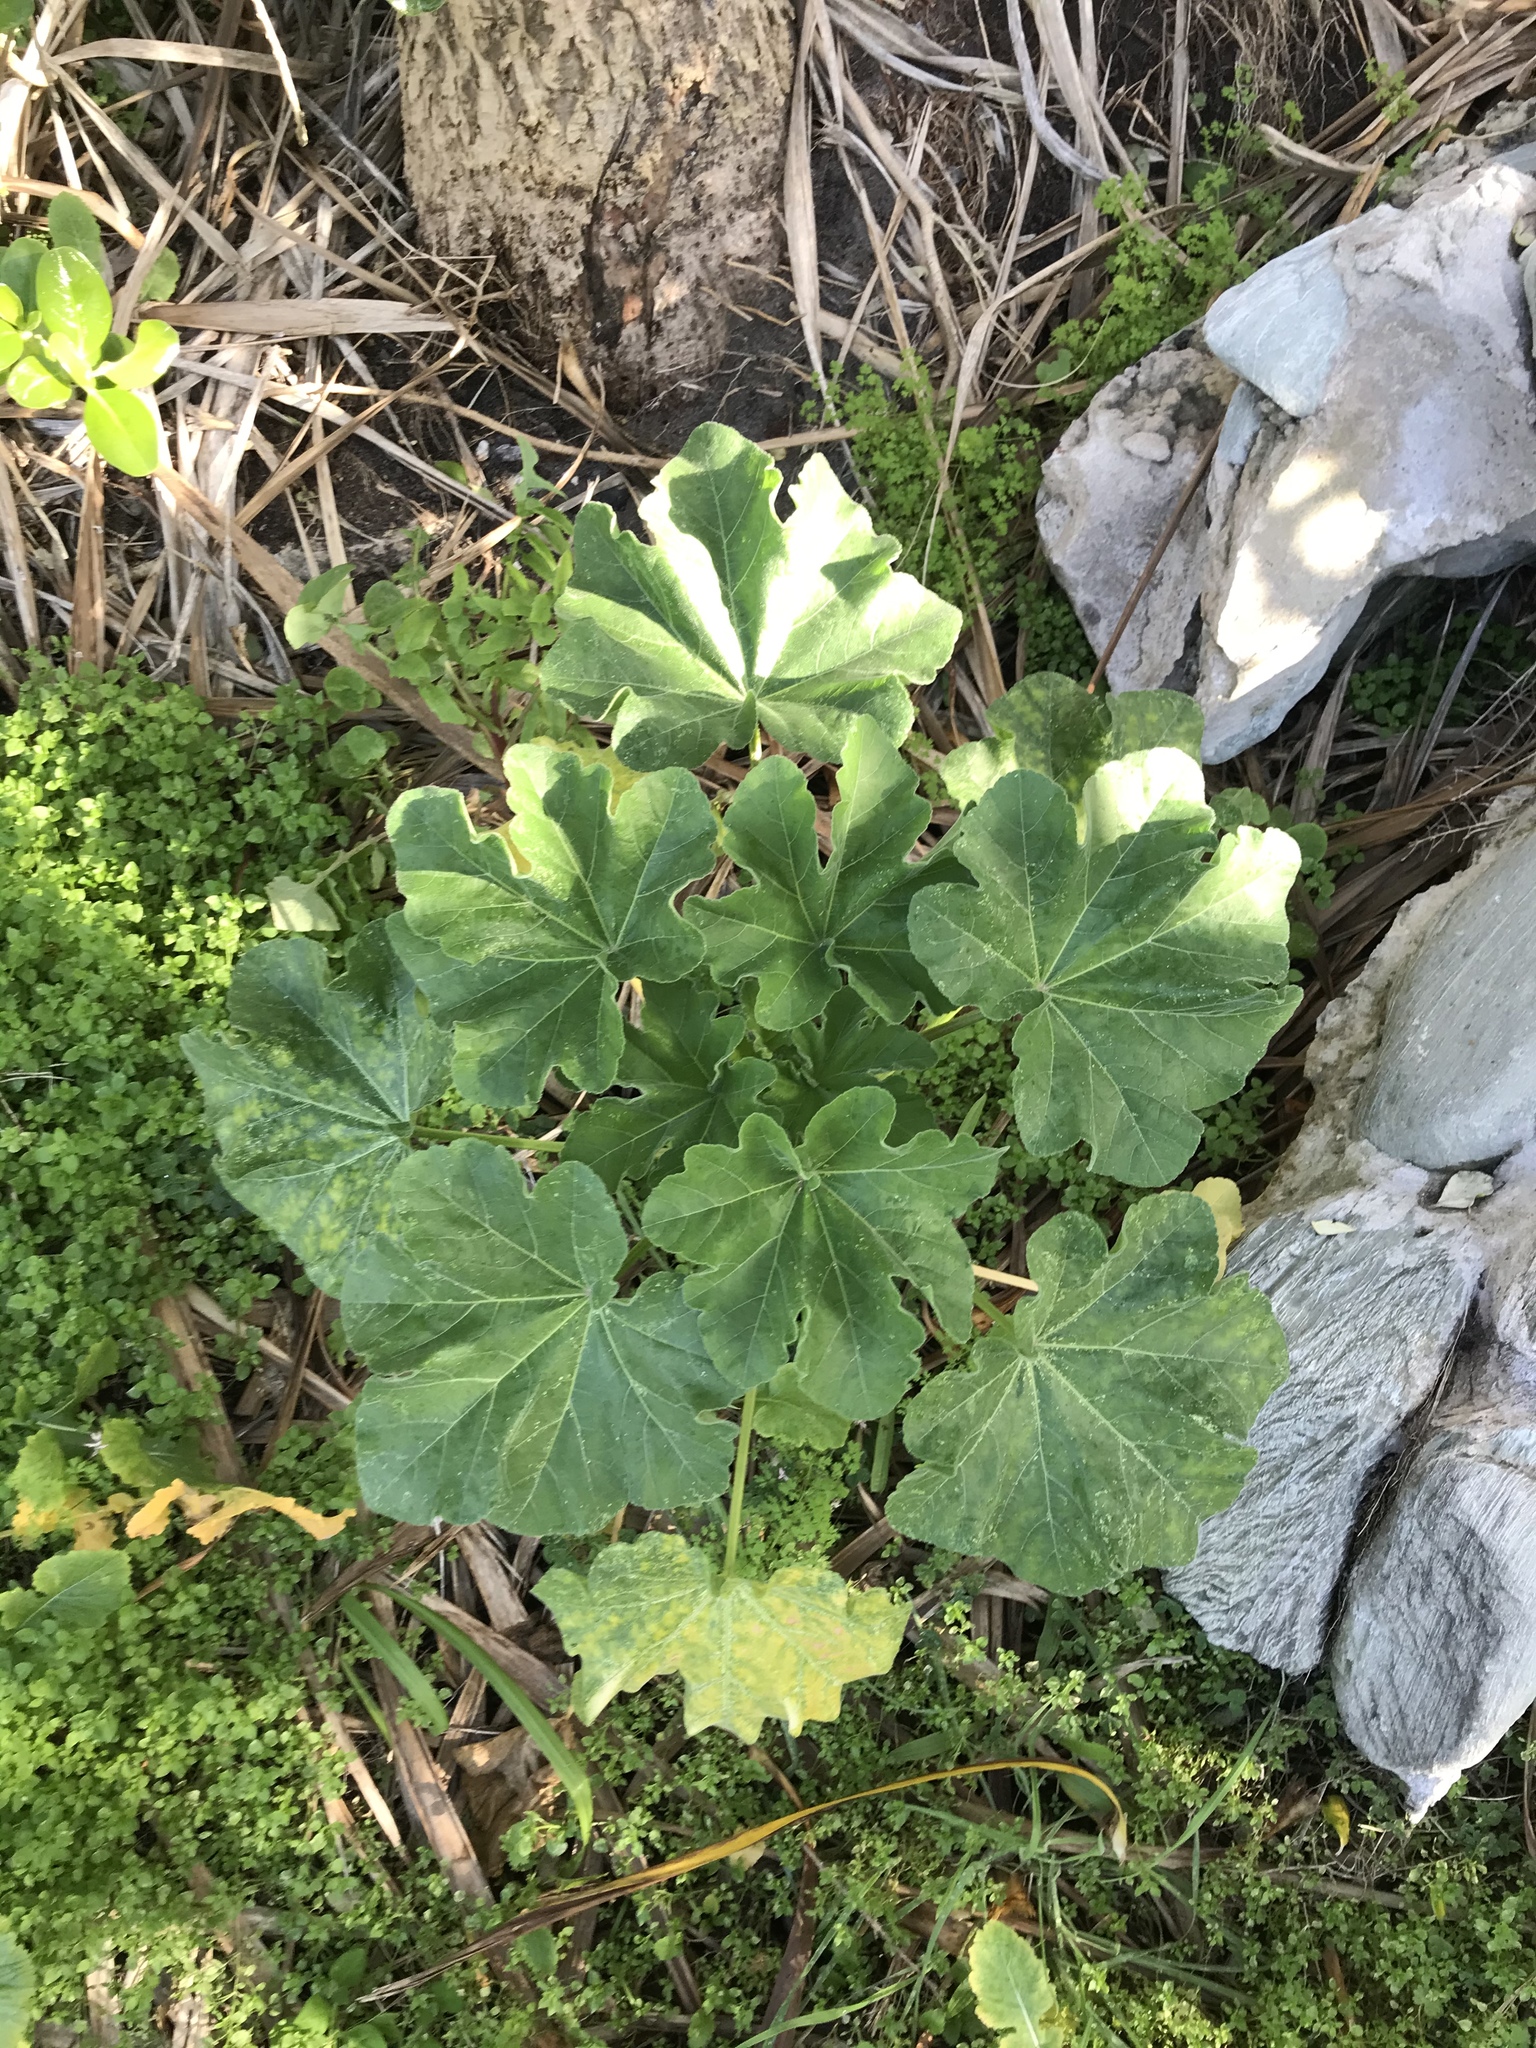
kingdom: Plantae
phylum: Tracheophyta
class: Magnoliopsida
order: Malvales
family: Malvaceae
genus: Malva
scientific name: Malva arborea
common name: Tree mallow
